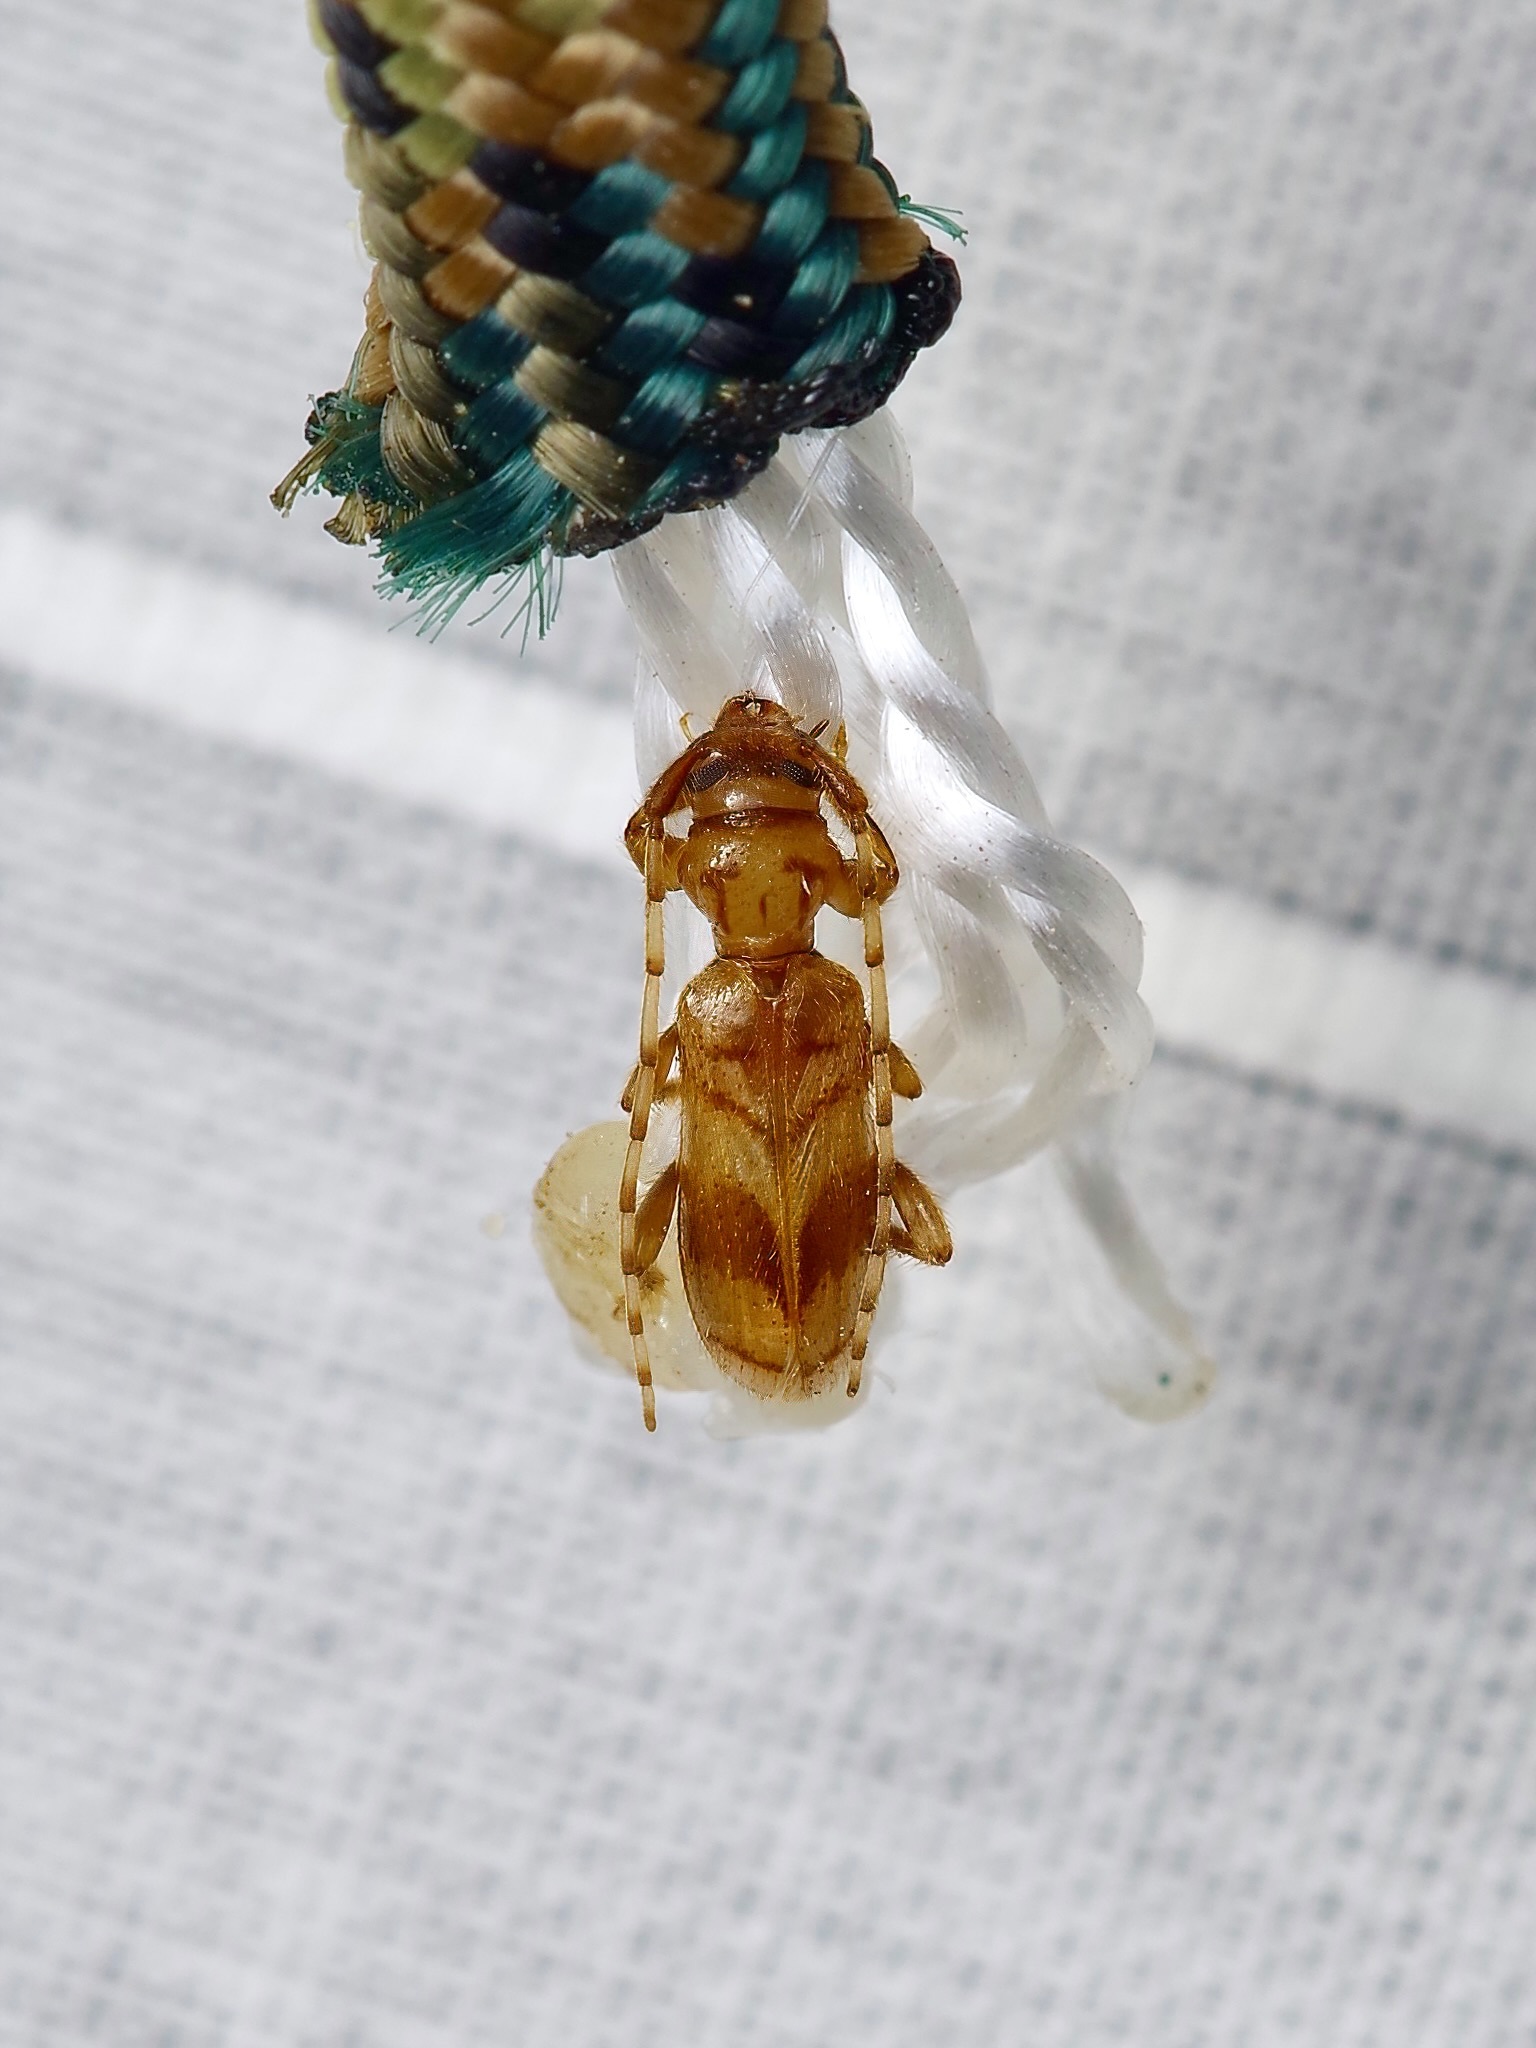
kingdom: Animalia
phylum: Arthropoda
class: Insecta
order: Coleoptera
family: Cerambycidae
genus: Obrium
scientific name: Obrium maculatum
